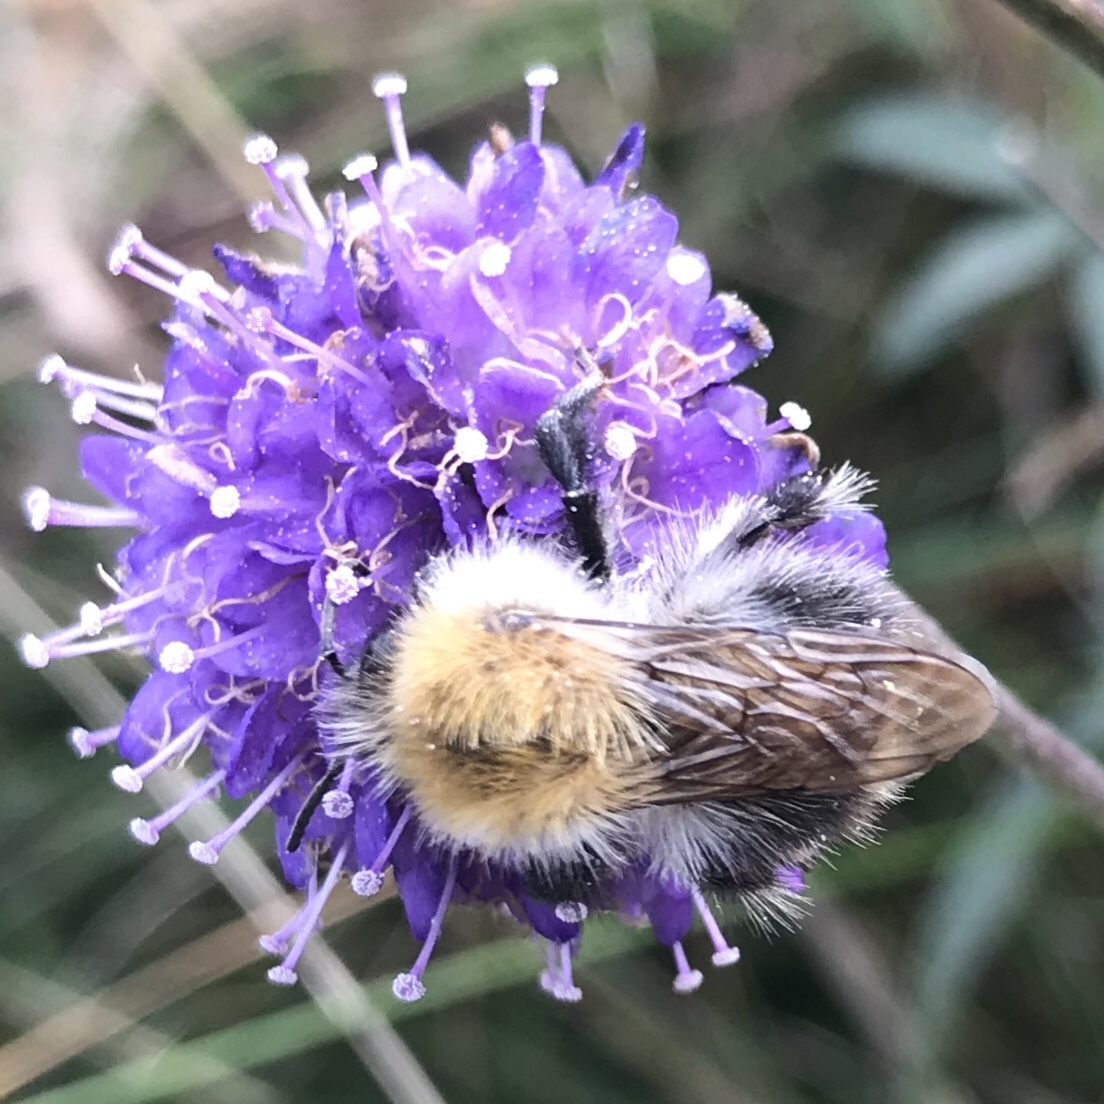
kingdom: Animalia
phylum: Arthropoda
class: Insecta
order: Hymenoptera
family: Apidae
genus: Bombus
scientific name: Bombus pascuorum
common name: Common carder bee
